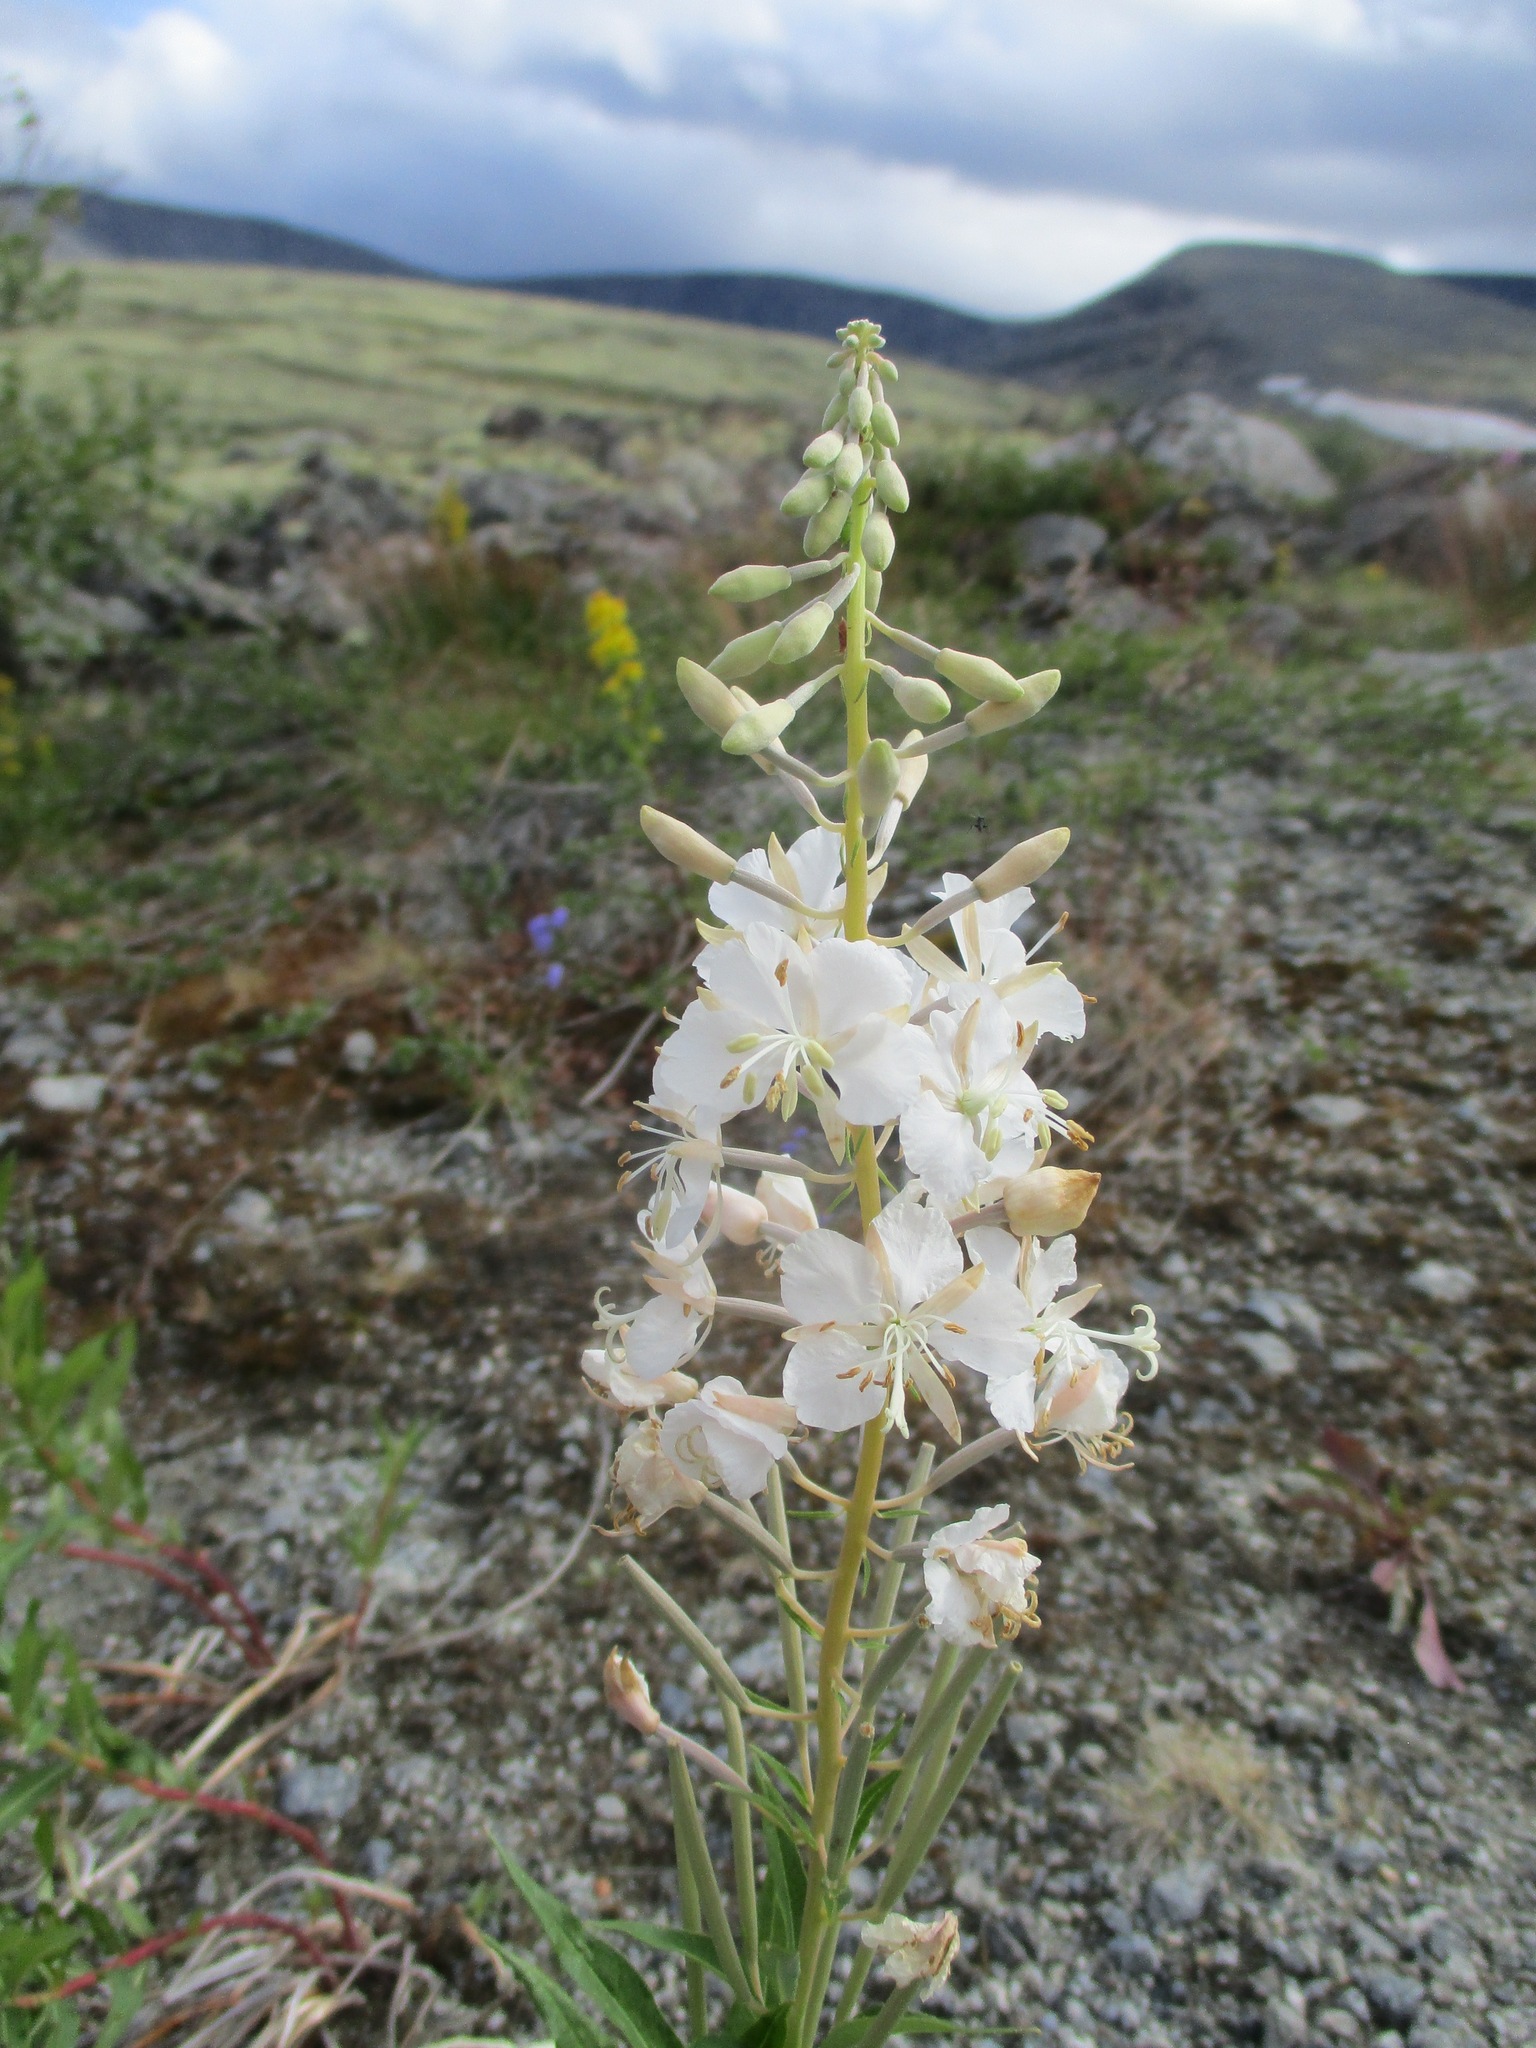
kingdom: Plantae
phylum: Tracheophyta
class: Magnoliopsida
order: Myrtales
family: Onagraceae
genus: Chamaenerion
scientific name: Chamaenerion angustifolium
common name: Fireweed
